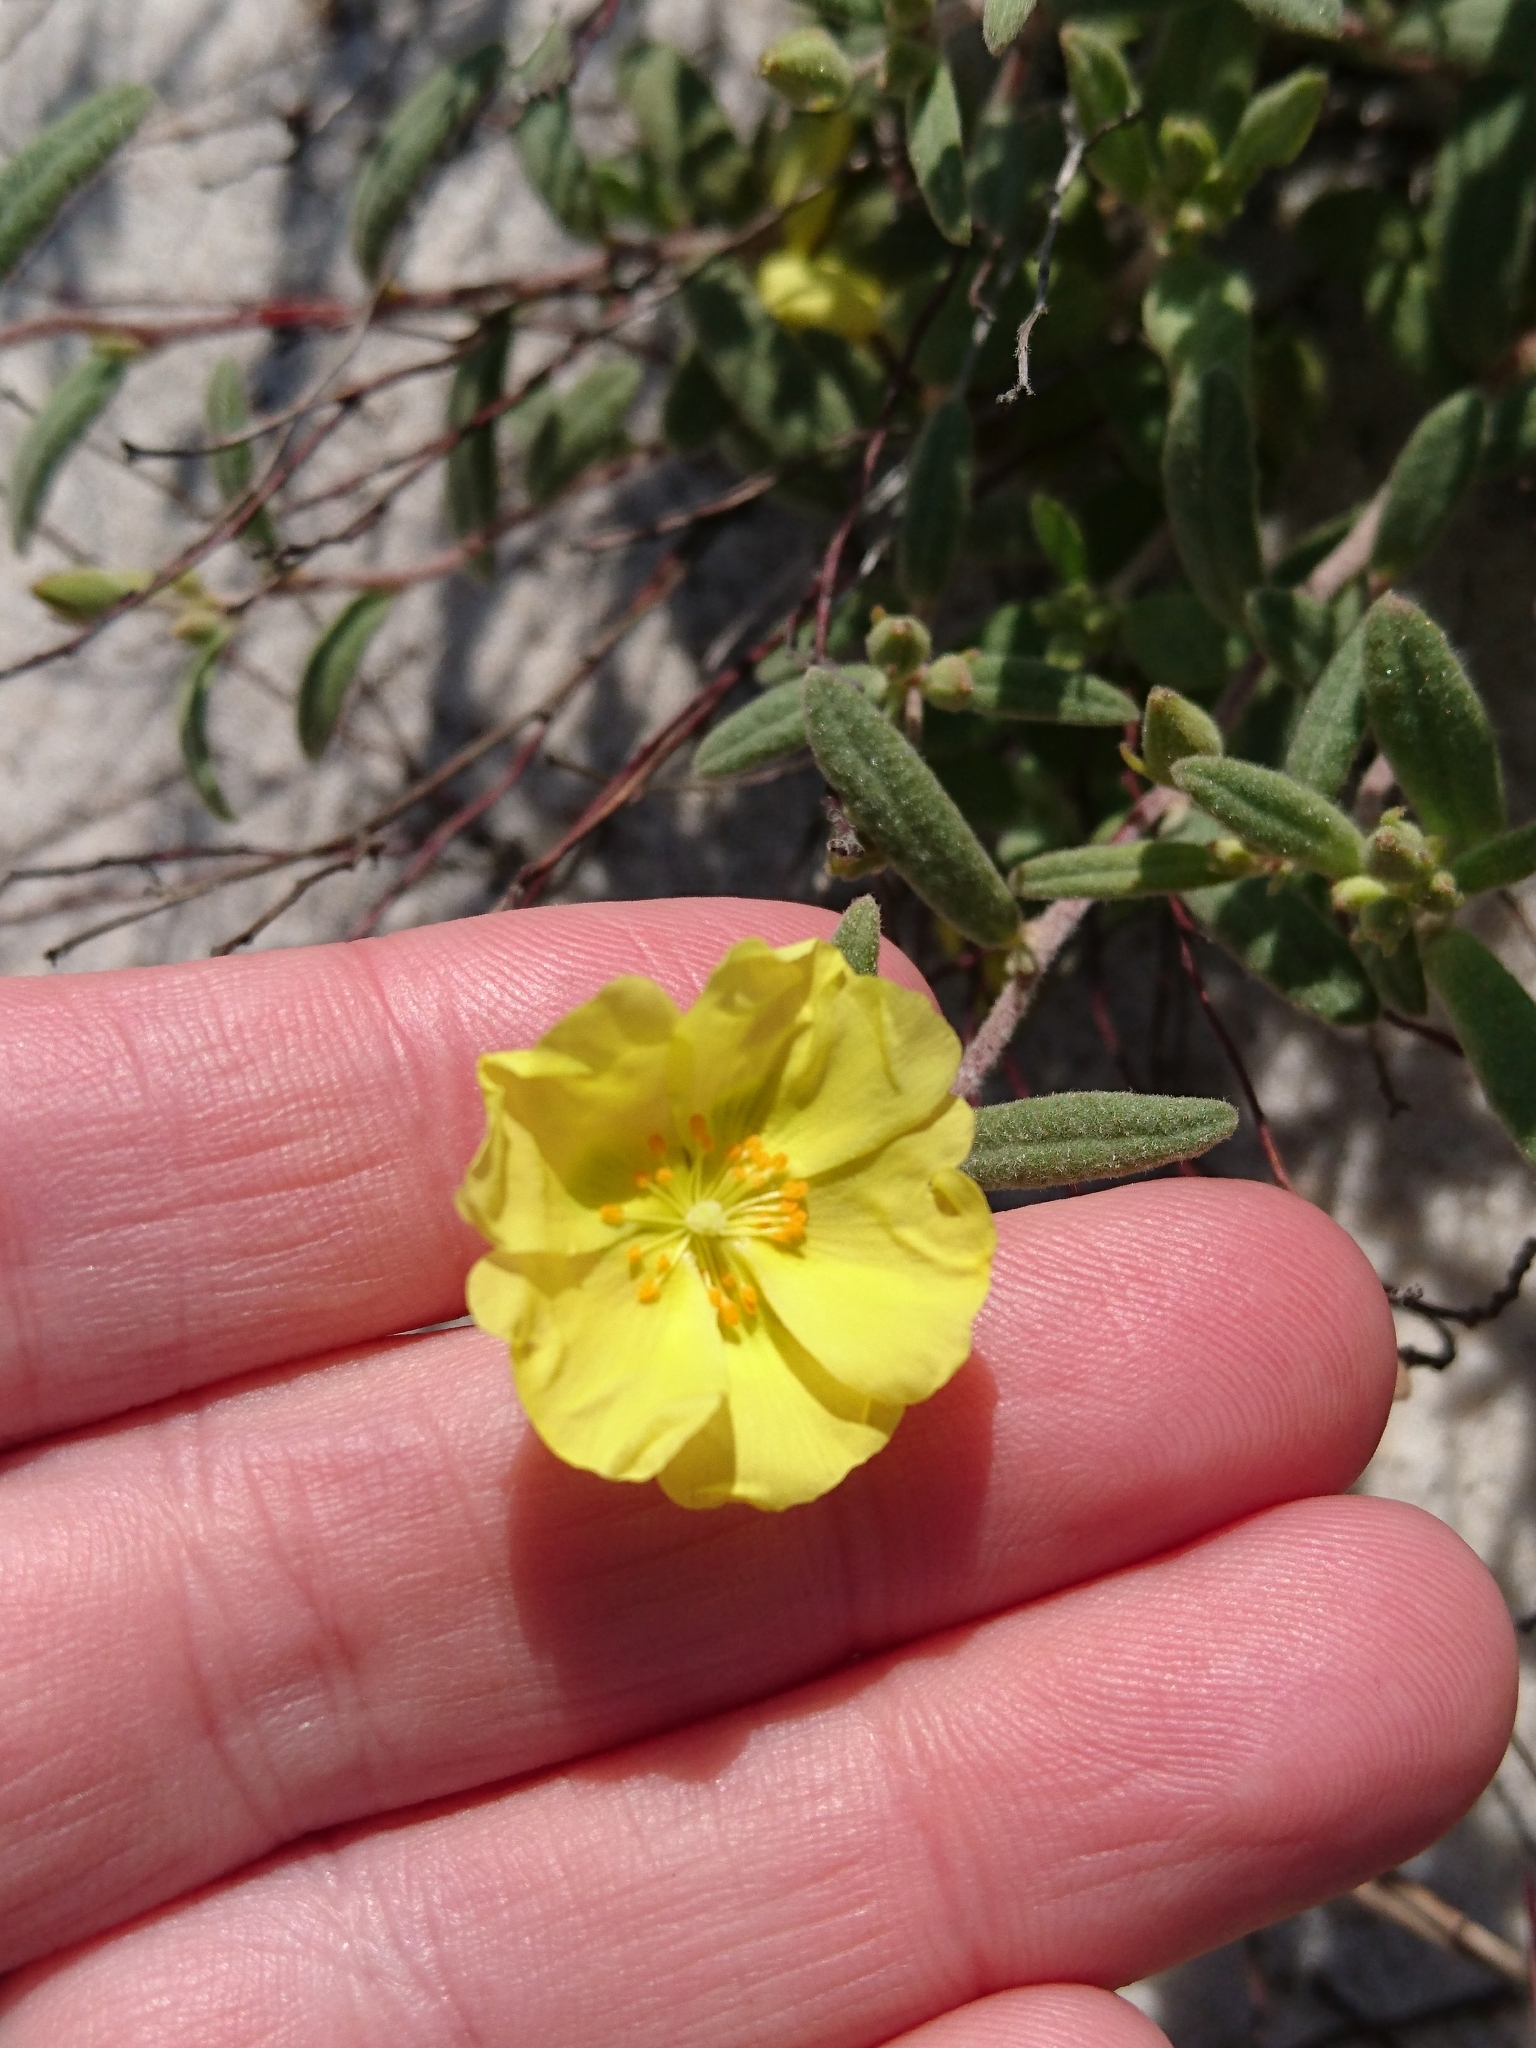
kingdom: Plantae
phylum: Tracheophyta
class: Magnoliopsida
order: Malvales
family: Cistaceae
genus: Crocanthemum
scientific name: Crocanthemum arenicola
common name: Gulf coast frostweed
